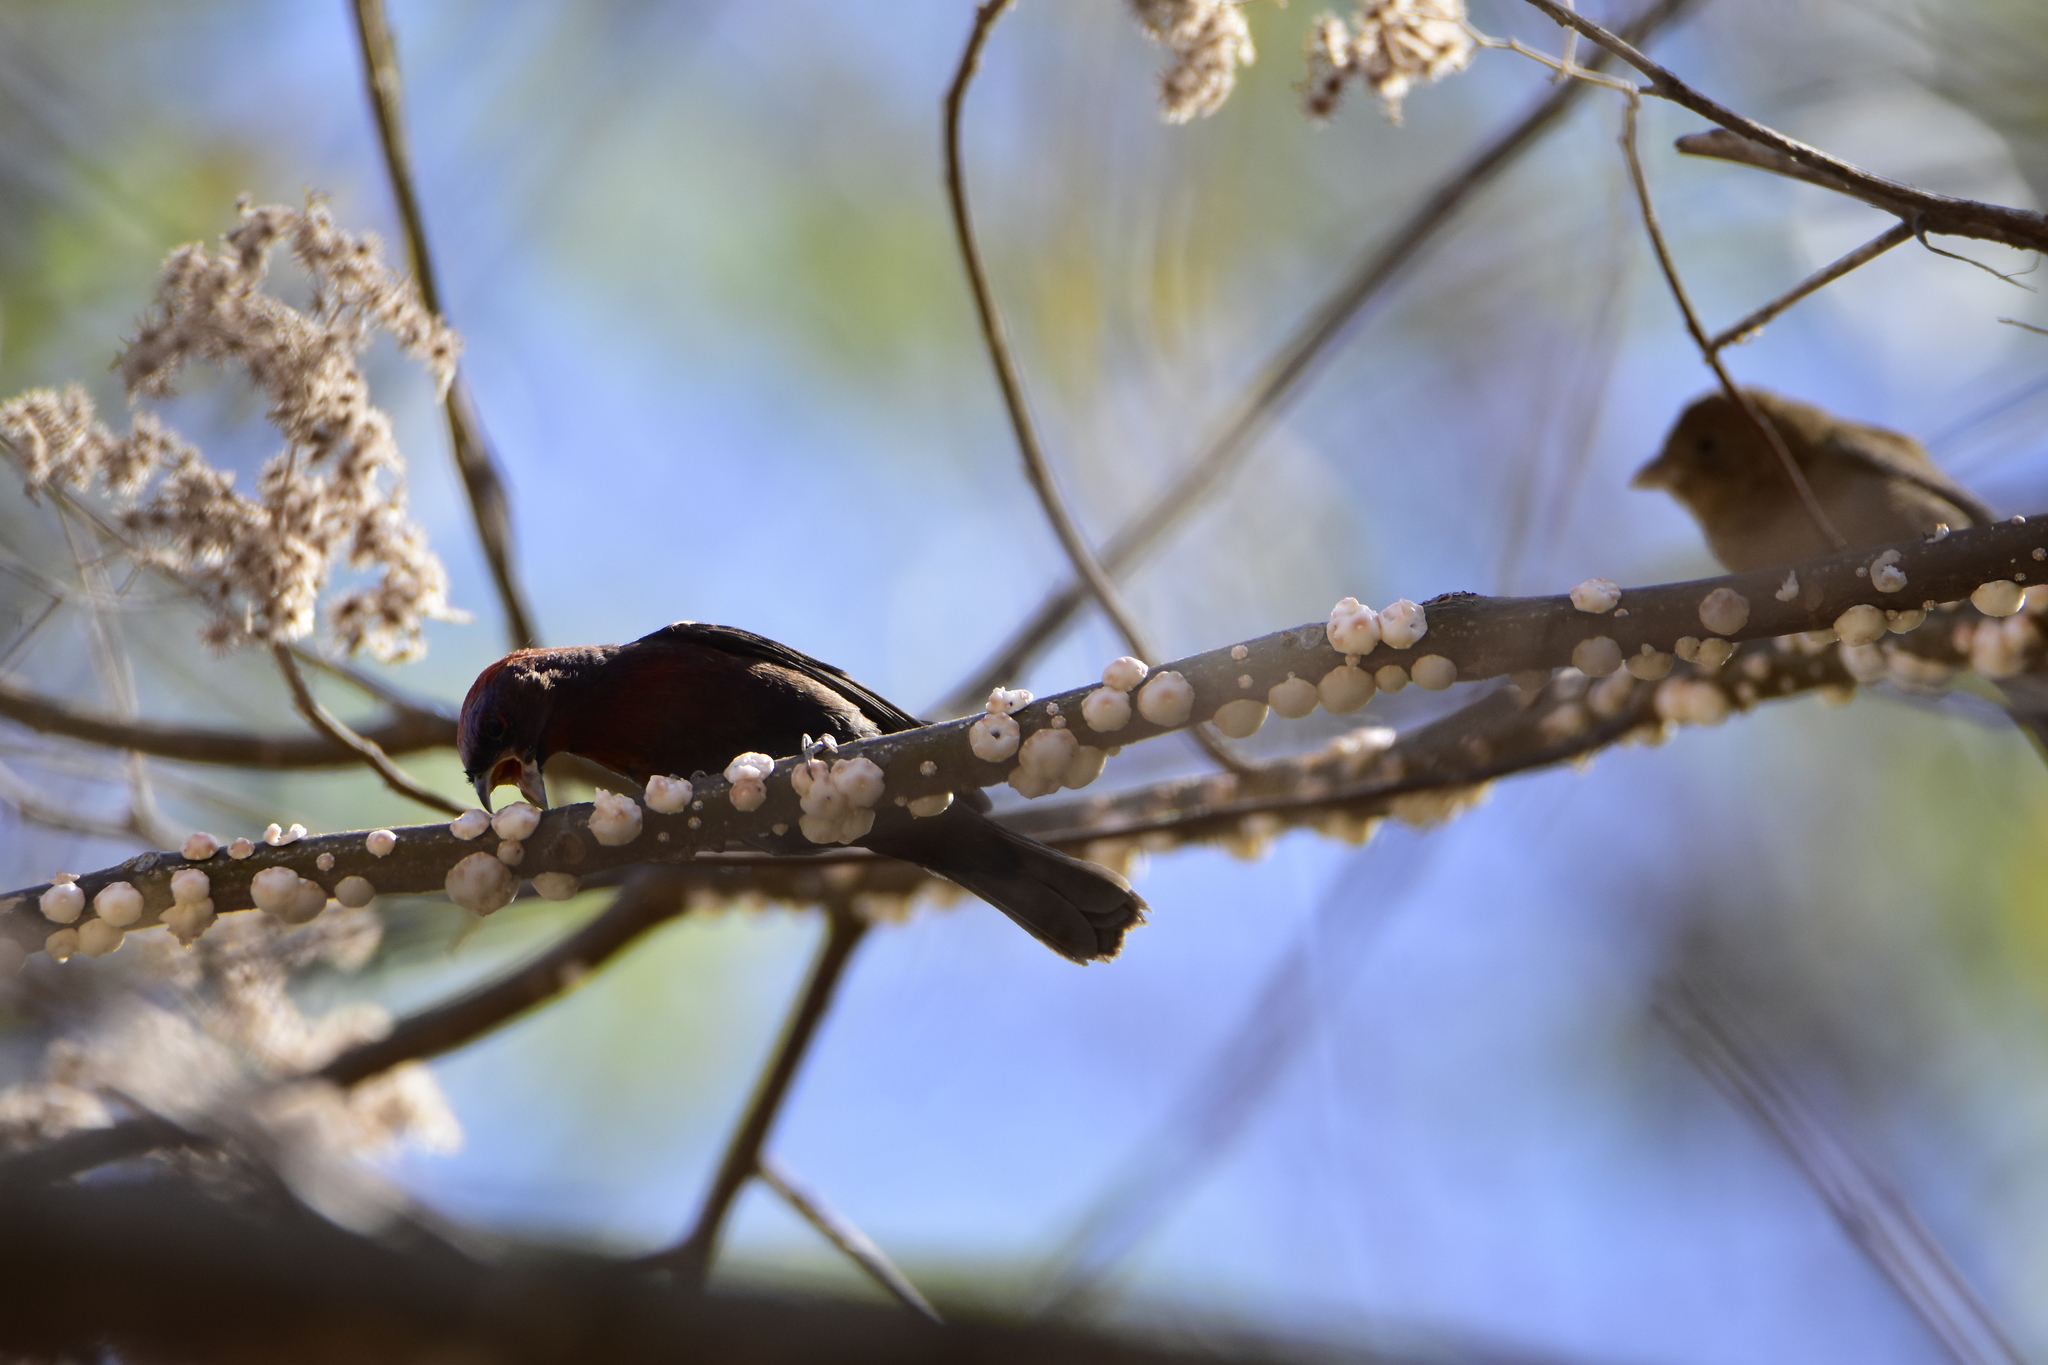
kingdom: Animalia
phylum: Chordata
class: Aves
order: Passeriformes
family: Cardinalidae
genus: Passerina
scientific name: Passerina versicolor
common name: Varied bunting
